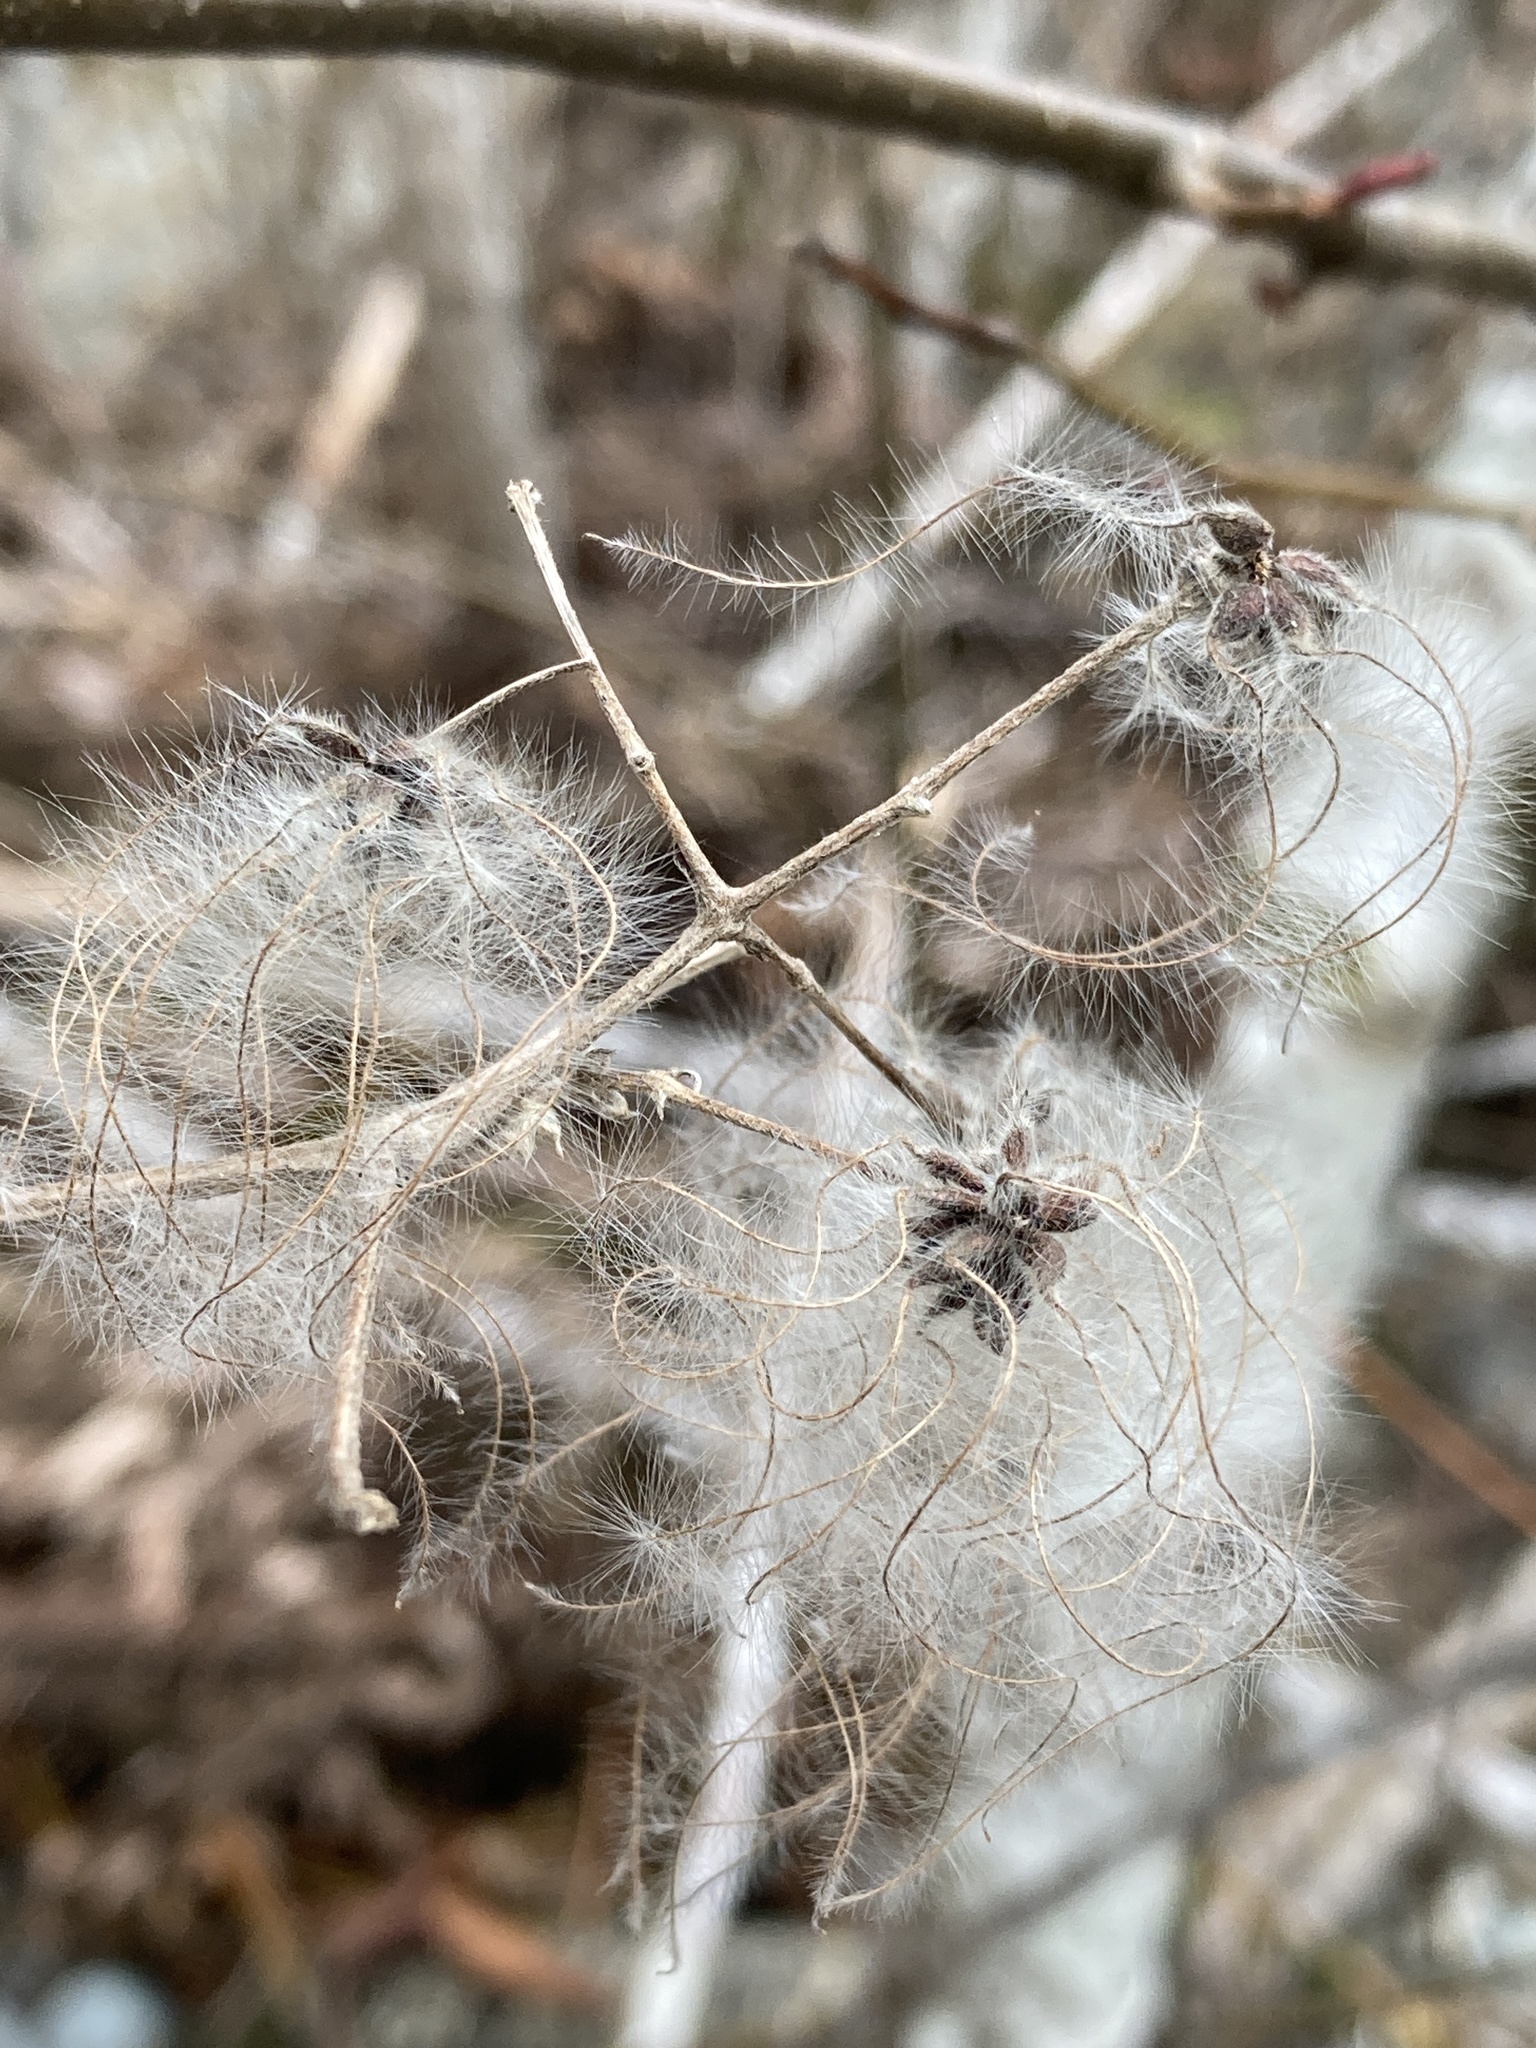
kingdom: Plantae
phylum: Tracheophyta
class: Magnoliopsida
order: Ranunculales
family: Ranunculaceae
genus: Clematis
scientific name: Clematis vitalba
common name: Evergreen clematis
